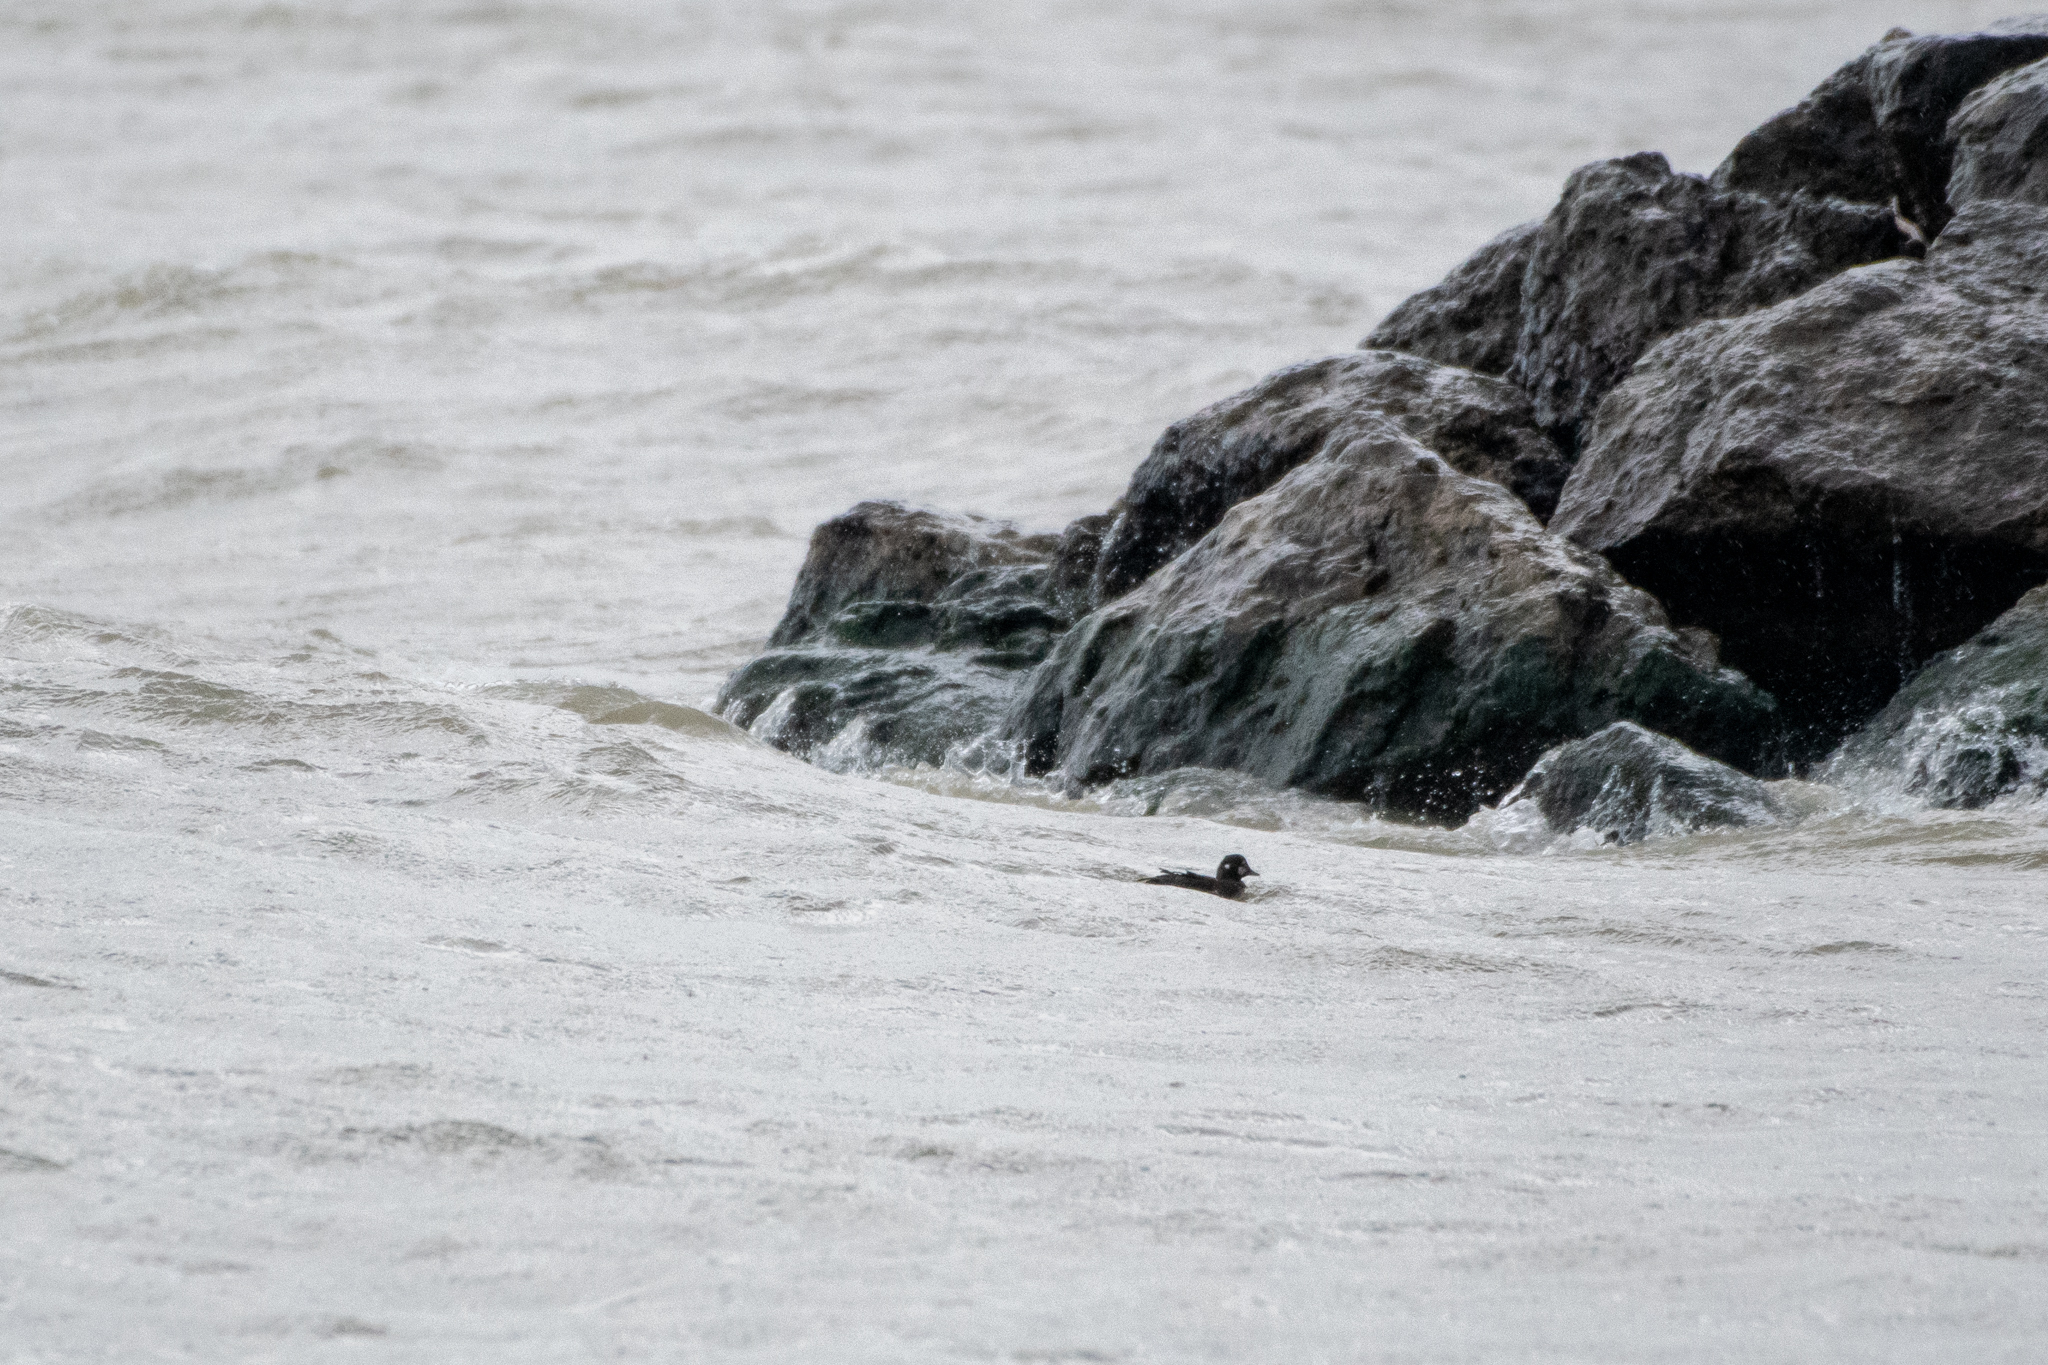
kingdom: Animalia
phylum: Chordata
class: Aves
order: Anseriformes
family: Anatidae
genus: Histrionicus
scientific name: Histrionicus histrionicus
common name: Harlequin duck
